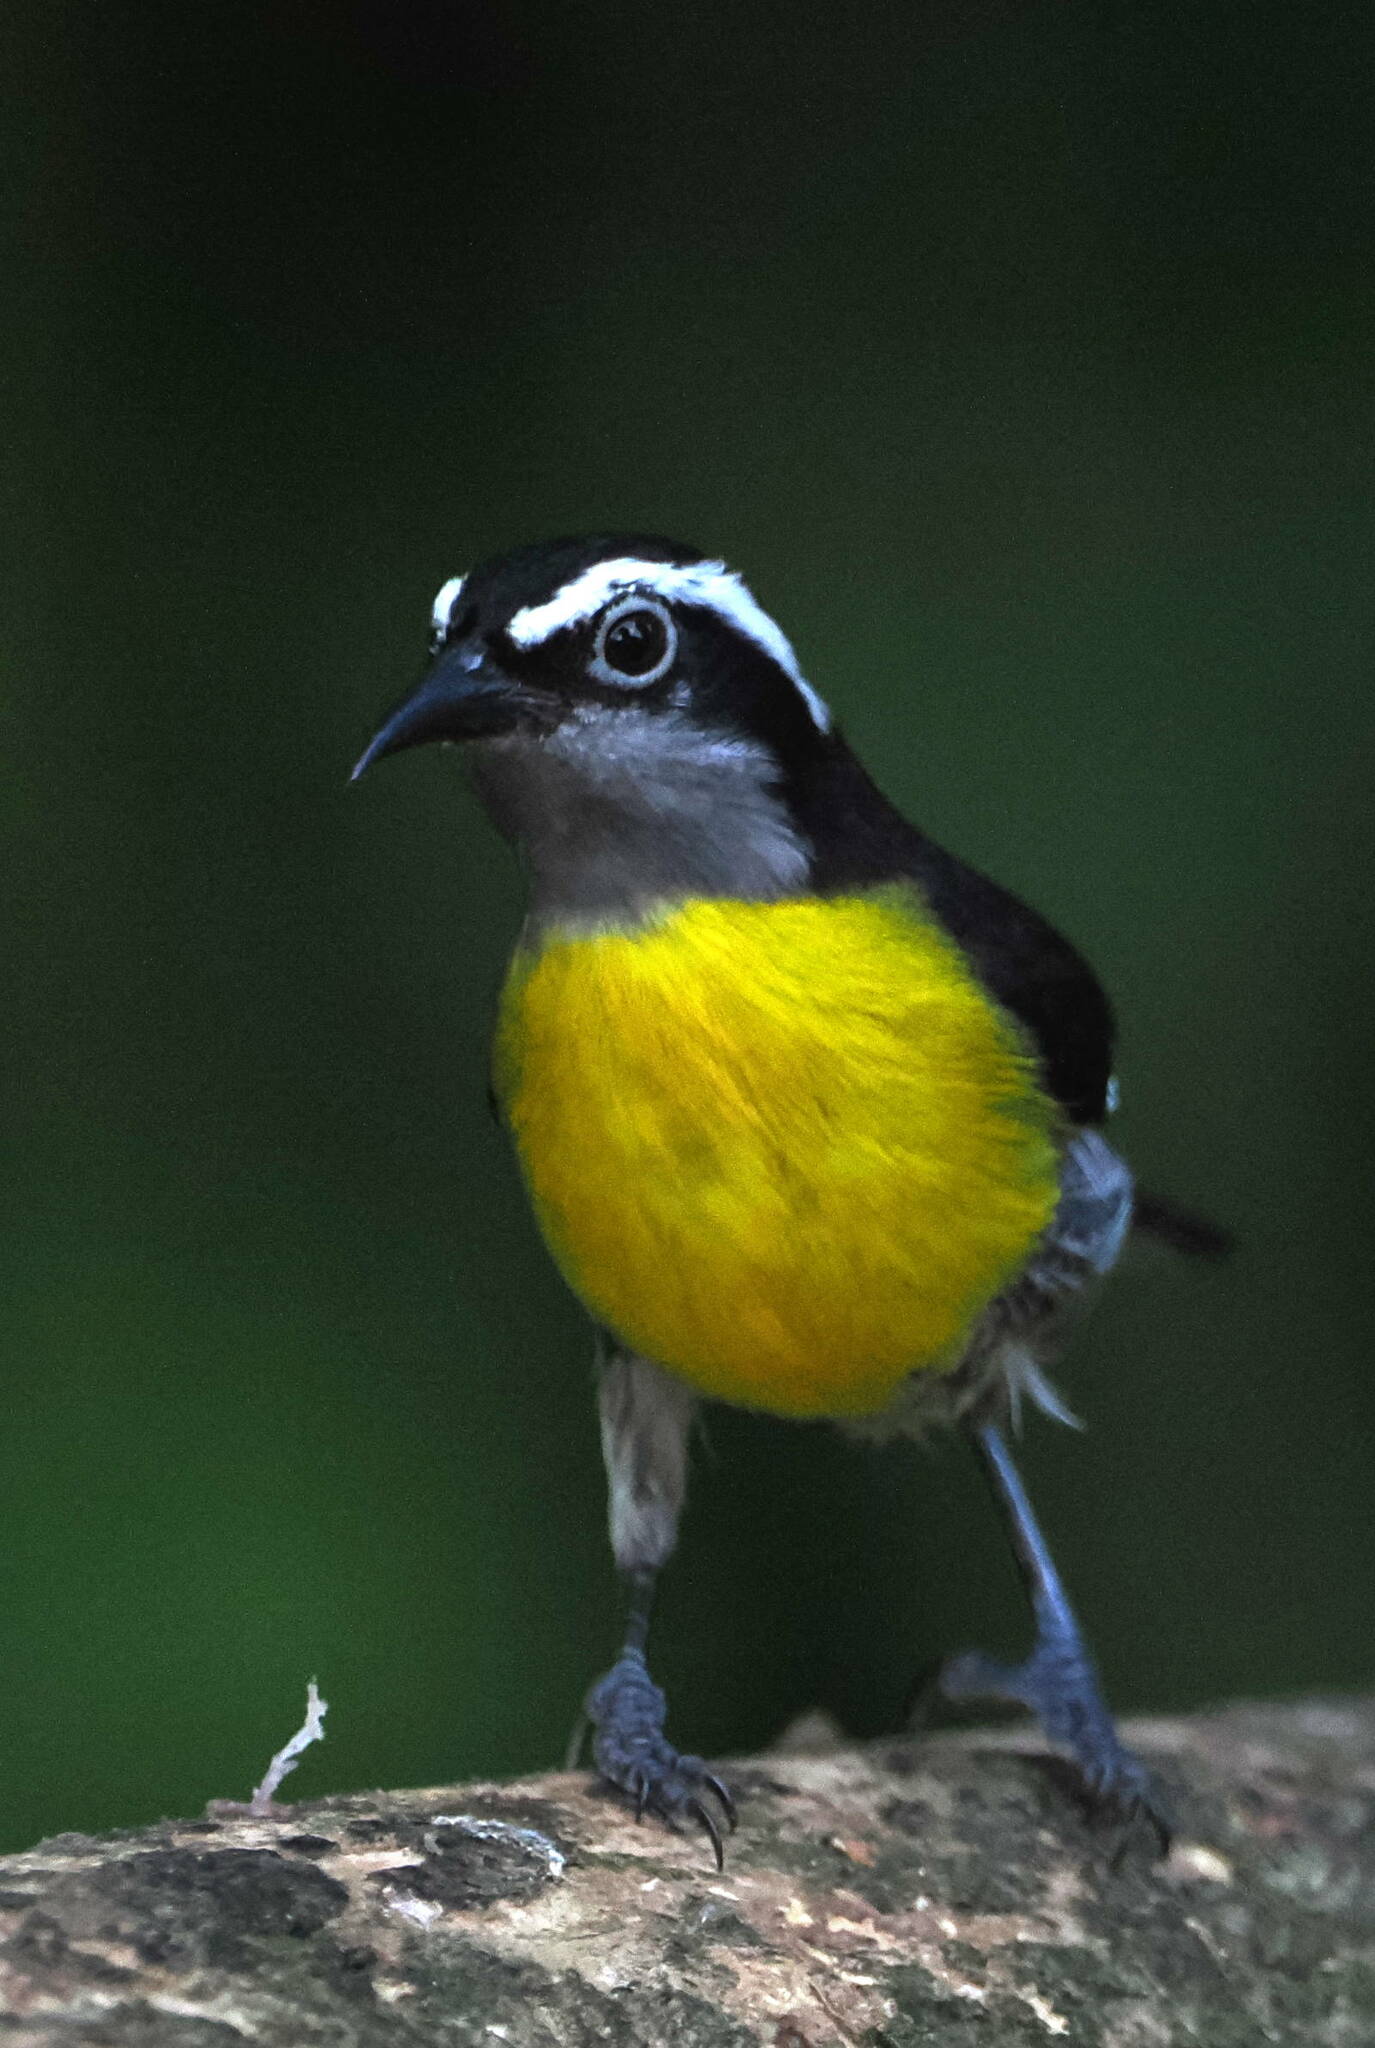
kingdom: Animalia
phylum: Chordata
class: Aves
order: Passeriformes
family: Thraupidae
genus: Coereba
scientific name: Coereba flaveola
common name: Bananaquit
